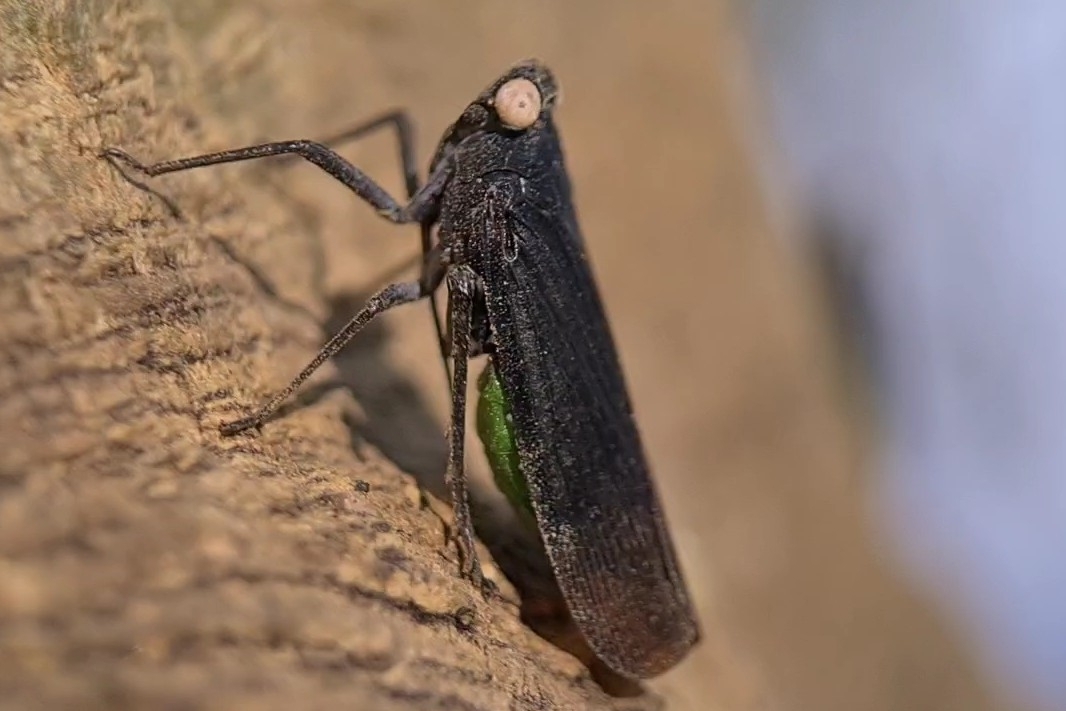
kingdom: Animalia
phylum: Arthropoda
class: Insecta
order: Hemiptera
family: Fulgoridae
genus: Desudaba
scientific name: Desudaba psittacus
